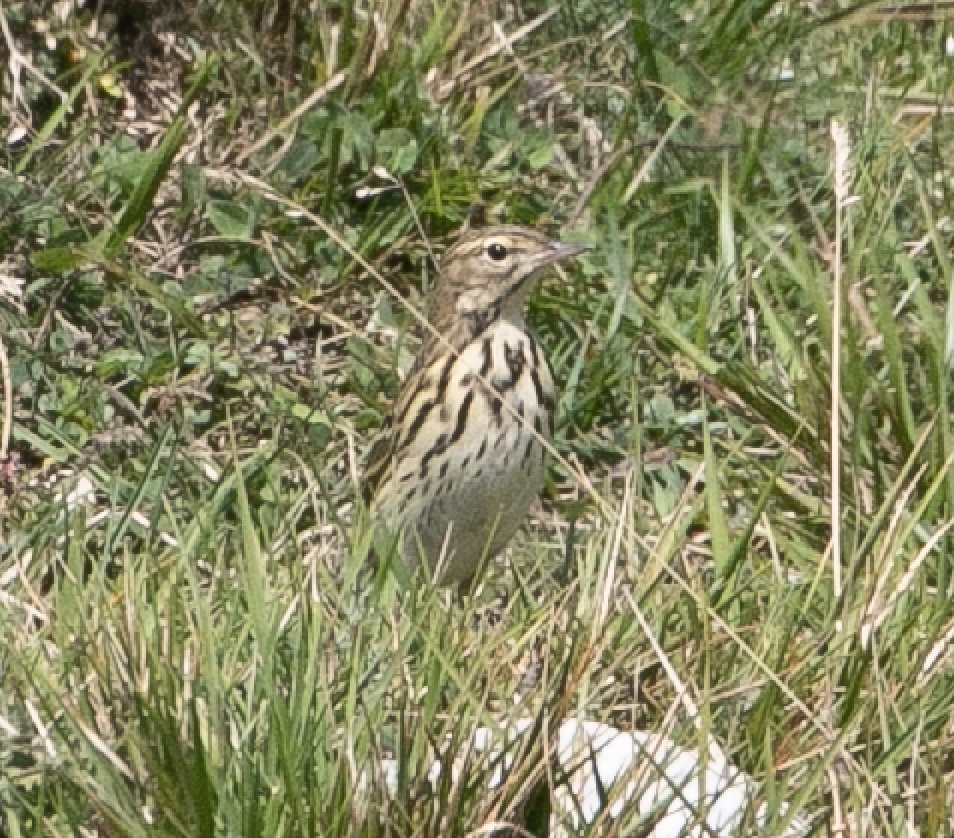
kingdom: Animalia
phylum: Chordata
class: Aves
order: Passeriformes
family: Motacillidae
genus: Anthus
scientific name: Anthus trivialis
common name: Tree pipit
